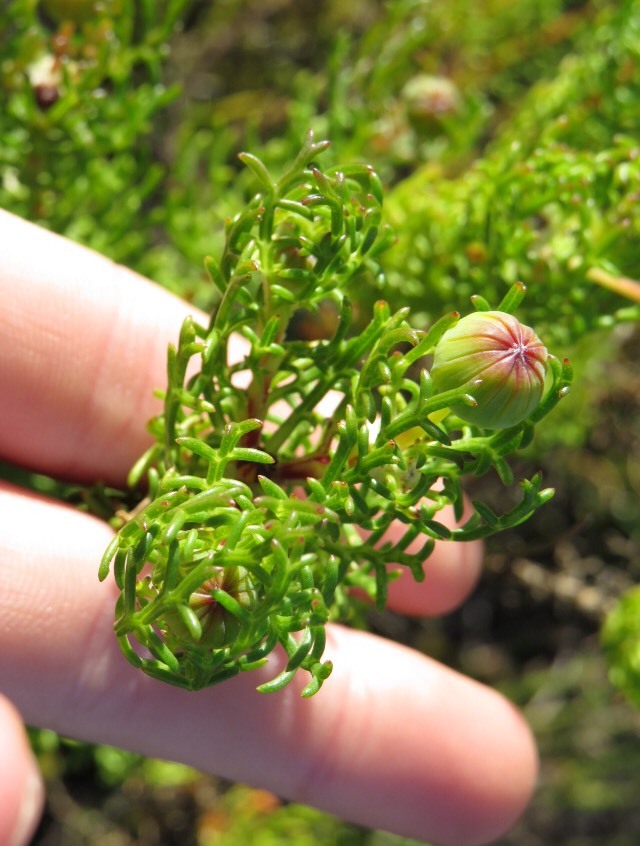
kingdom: Plantae
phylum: Tracheophyta
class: Magnoliopsida
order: Asterales
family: Asteraceae
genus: Euryops
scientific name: Euryops abrotanifolius
